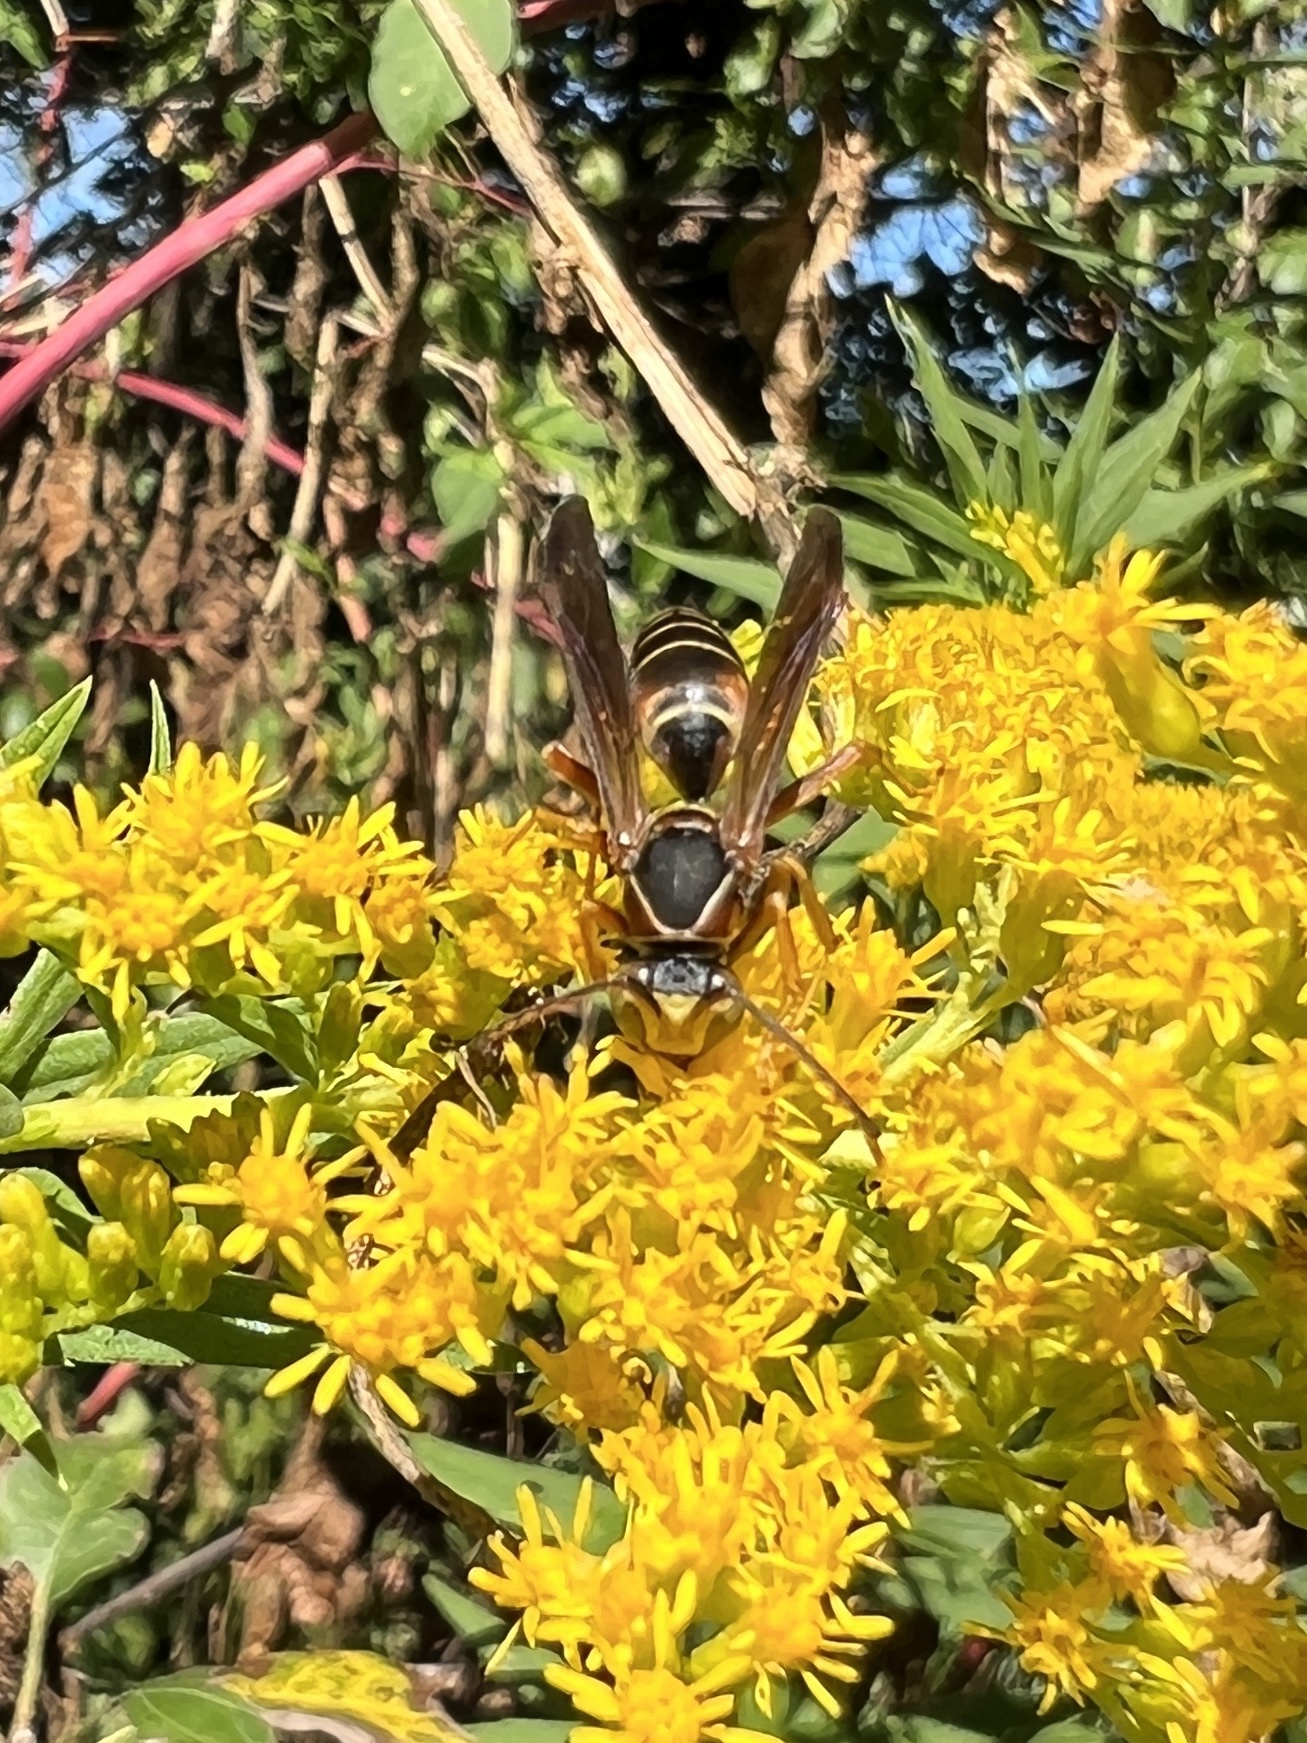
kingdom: Animalia
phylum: Arthropoda
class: Insecta
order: Hymenoptera
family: Eumenidae
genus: Polistes
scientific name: Polistes fuscatus
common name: Dark paper wasp
